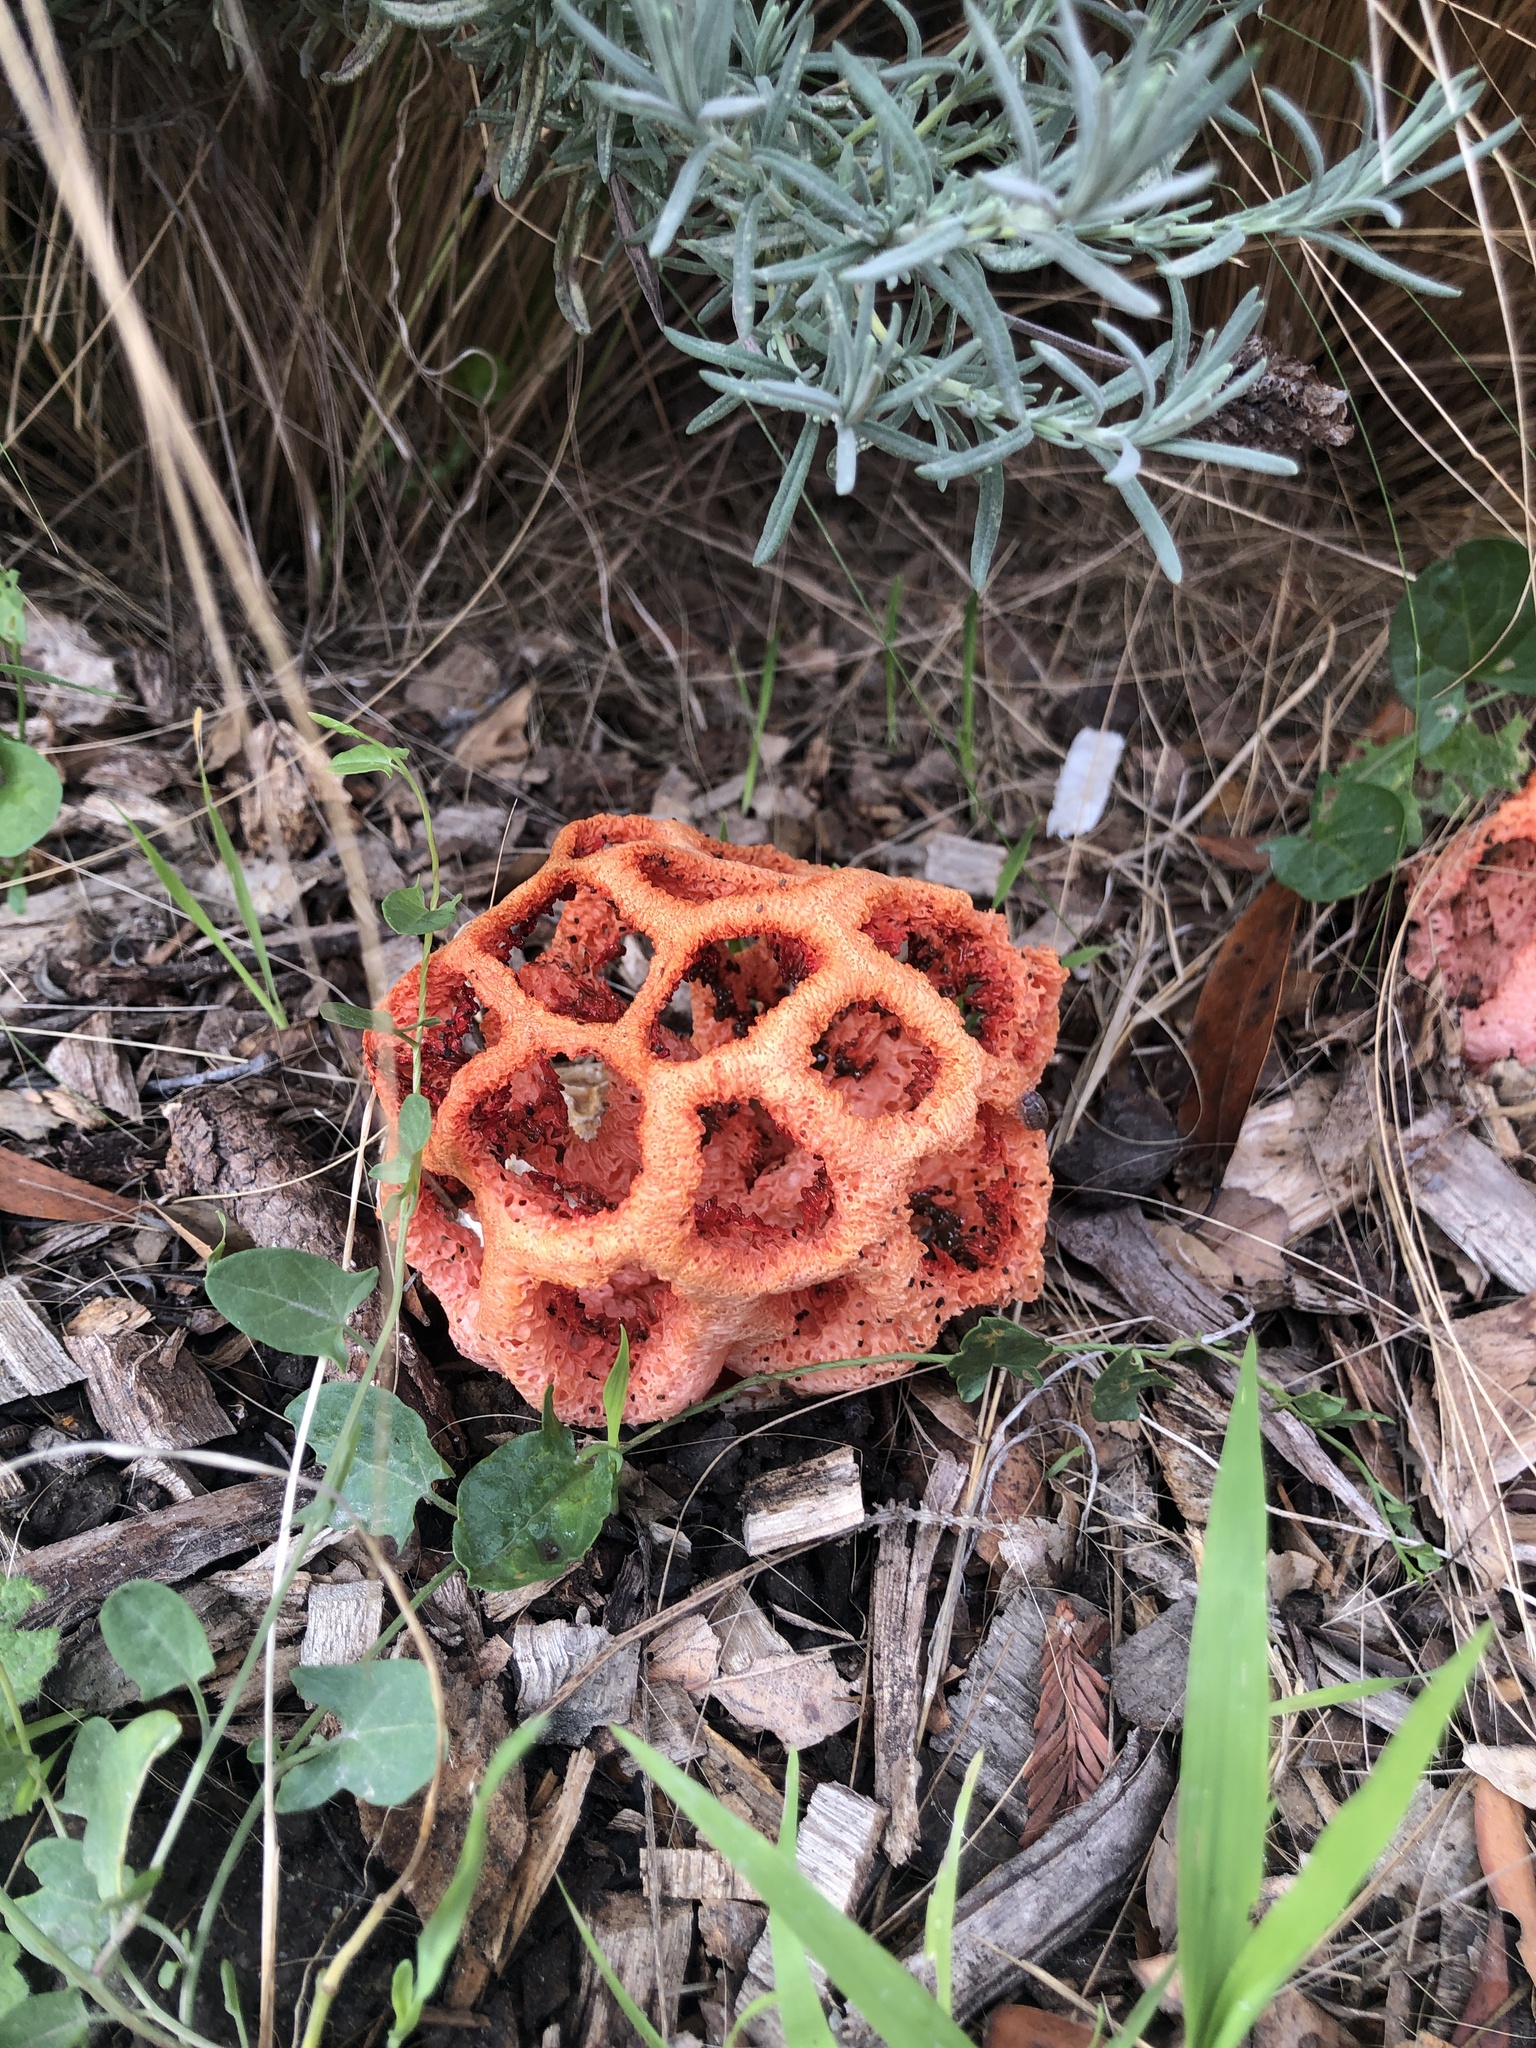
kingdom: Fungi
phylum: Basidiomycota
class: Agaricomycetes
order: Phallales
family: Phallaceae
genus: Clathrus
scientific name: Clathrus ruber
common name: Red cage
